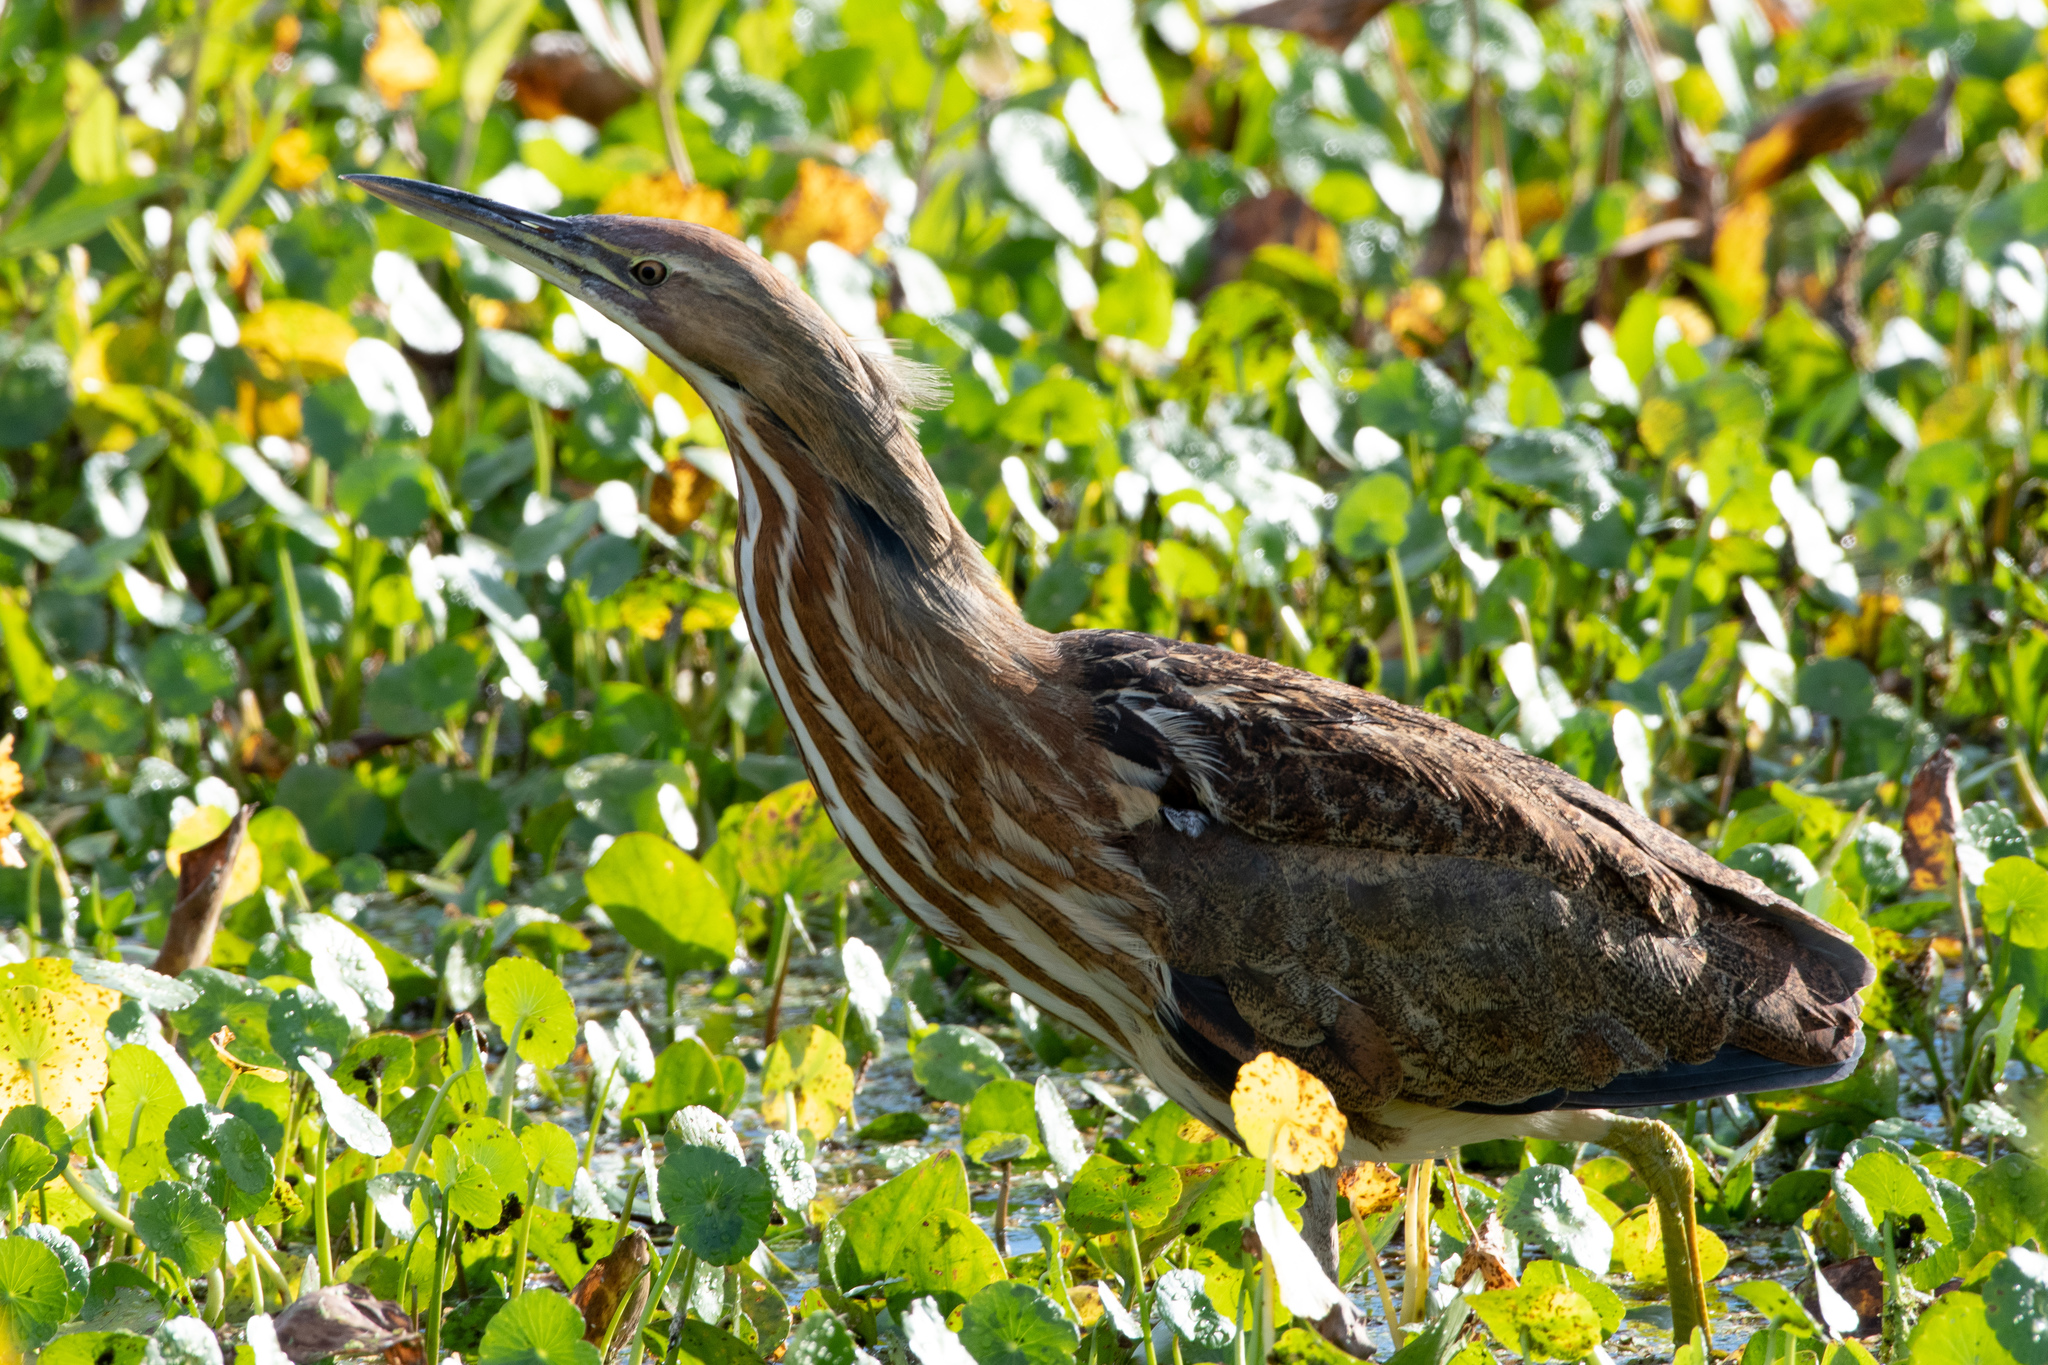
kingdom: Animalia
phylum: Chordata
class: Aves
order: Pelecaniformes
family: Ardeidae
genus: Botaurus
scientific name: Botaurus lentiginosus
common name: American bittern
